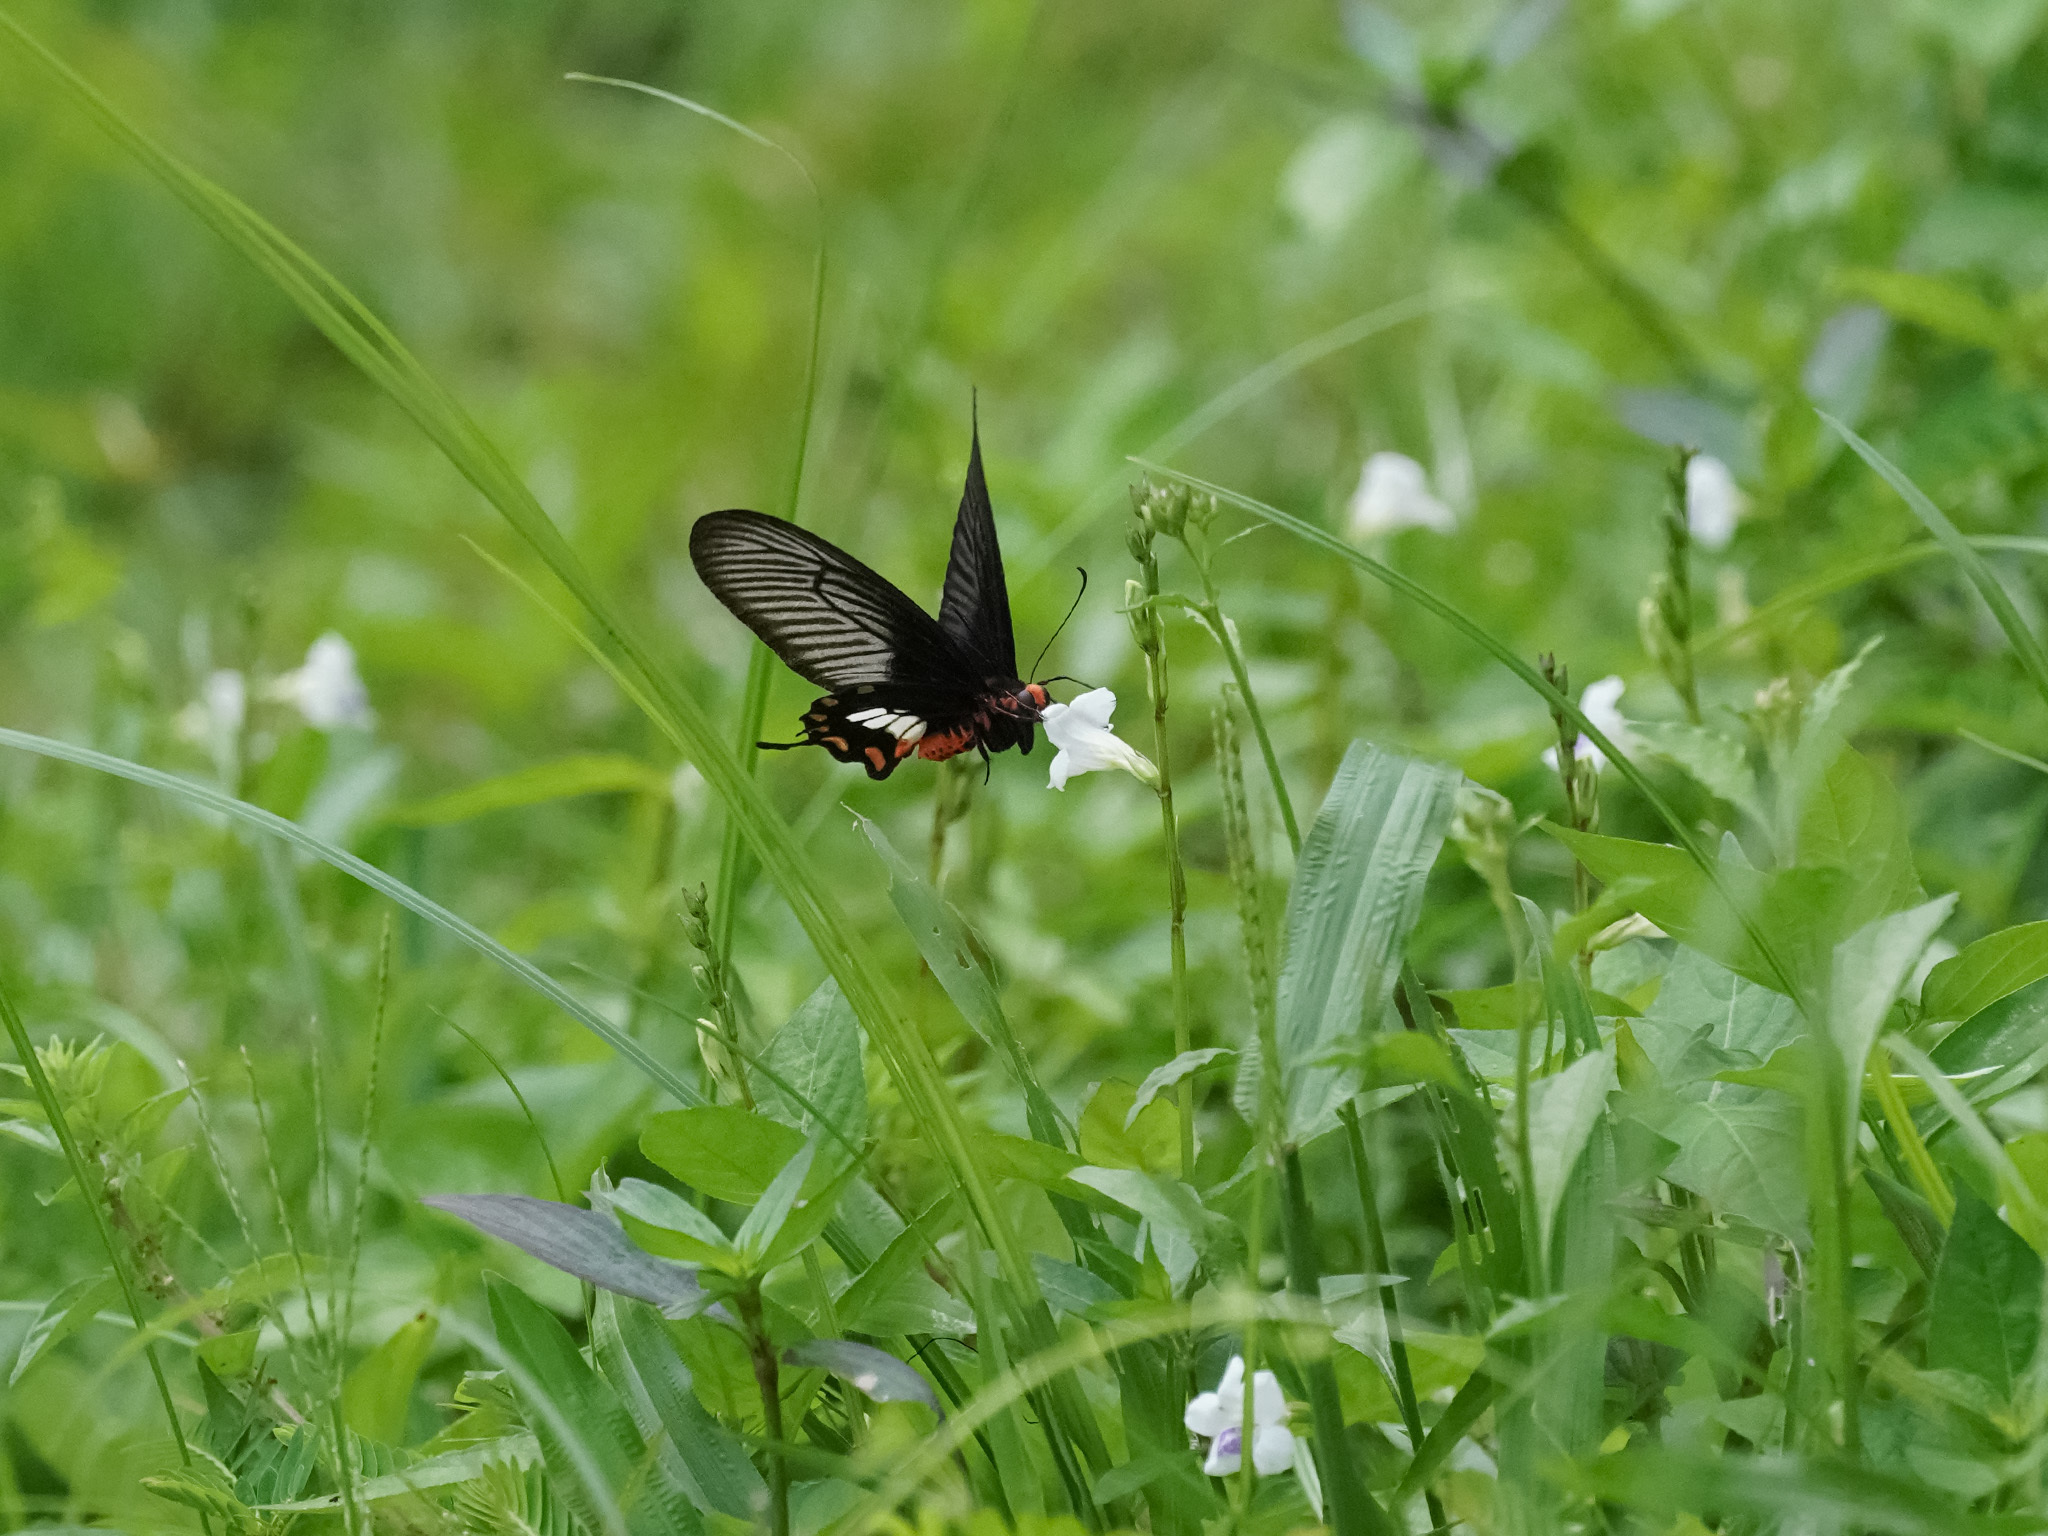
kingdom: Animalia
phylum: Arthropoda
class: Insecta
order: Lepidoptera
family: Papilionidae
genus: Pachliopta
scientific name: Pachliopta aristolochiae
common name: Common rose
